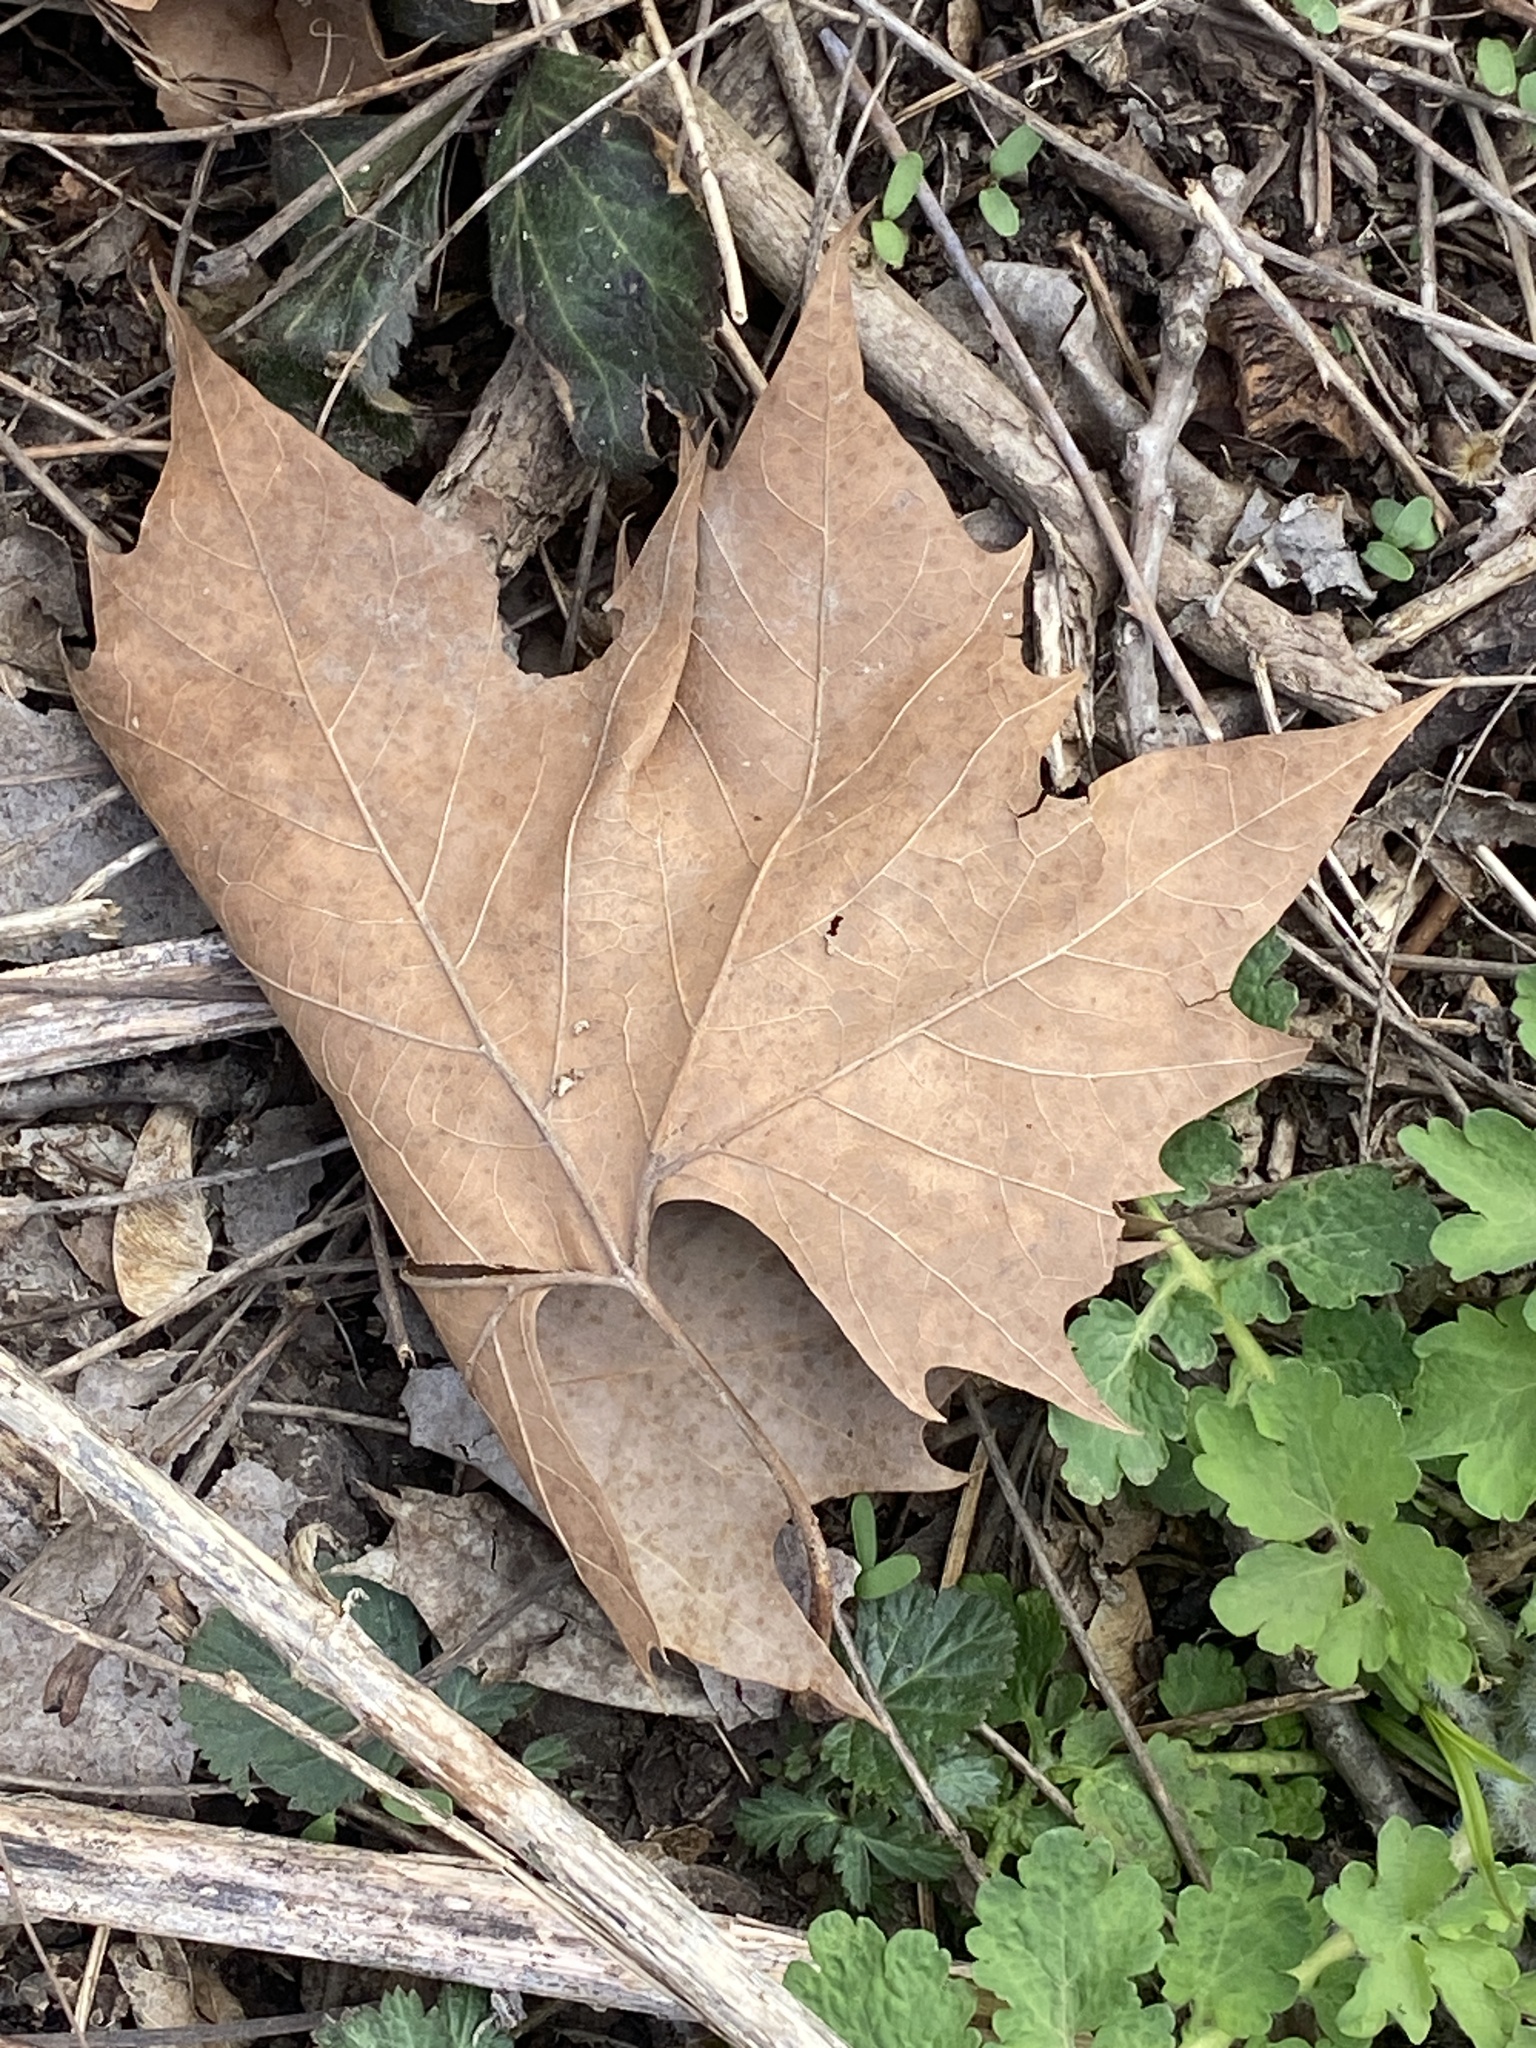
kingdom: Plantae
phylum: Tracheophyta
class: Magnoliopsida
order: Proteales
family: Platanaceae
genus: Platanus
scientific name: Platanus occidentalis
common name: American sycamore
